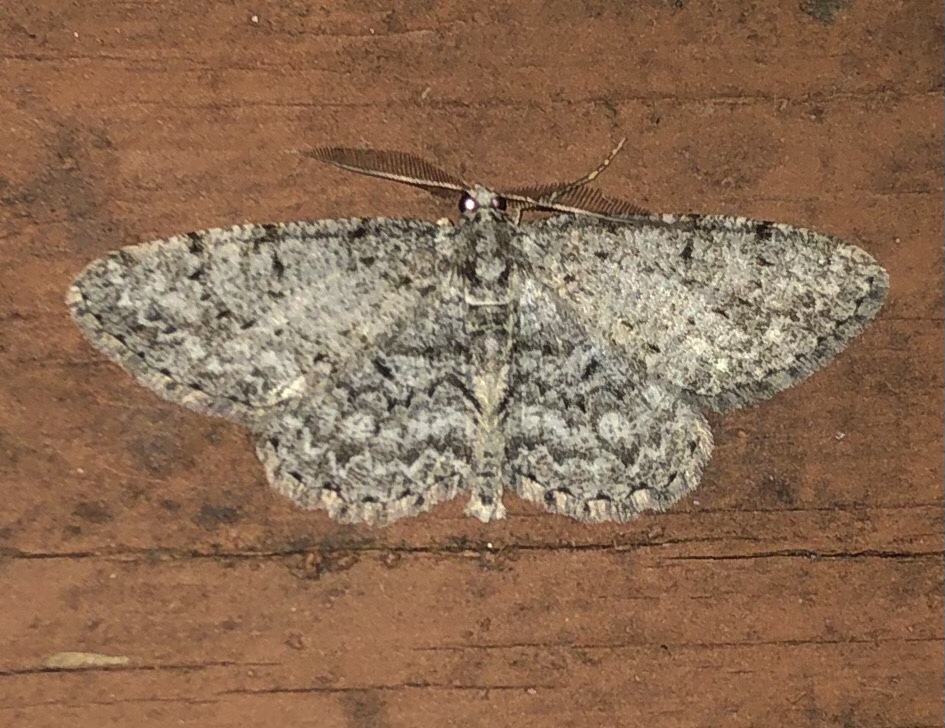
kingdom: Animalia
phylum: Arthropoda
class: Insecta
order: Lepidoptera
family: Geometridae
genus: Protoboarmia
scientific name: Protoboarmia porcelaria
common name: Porcelain gray
